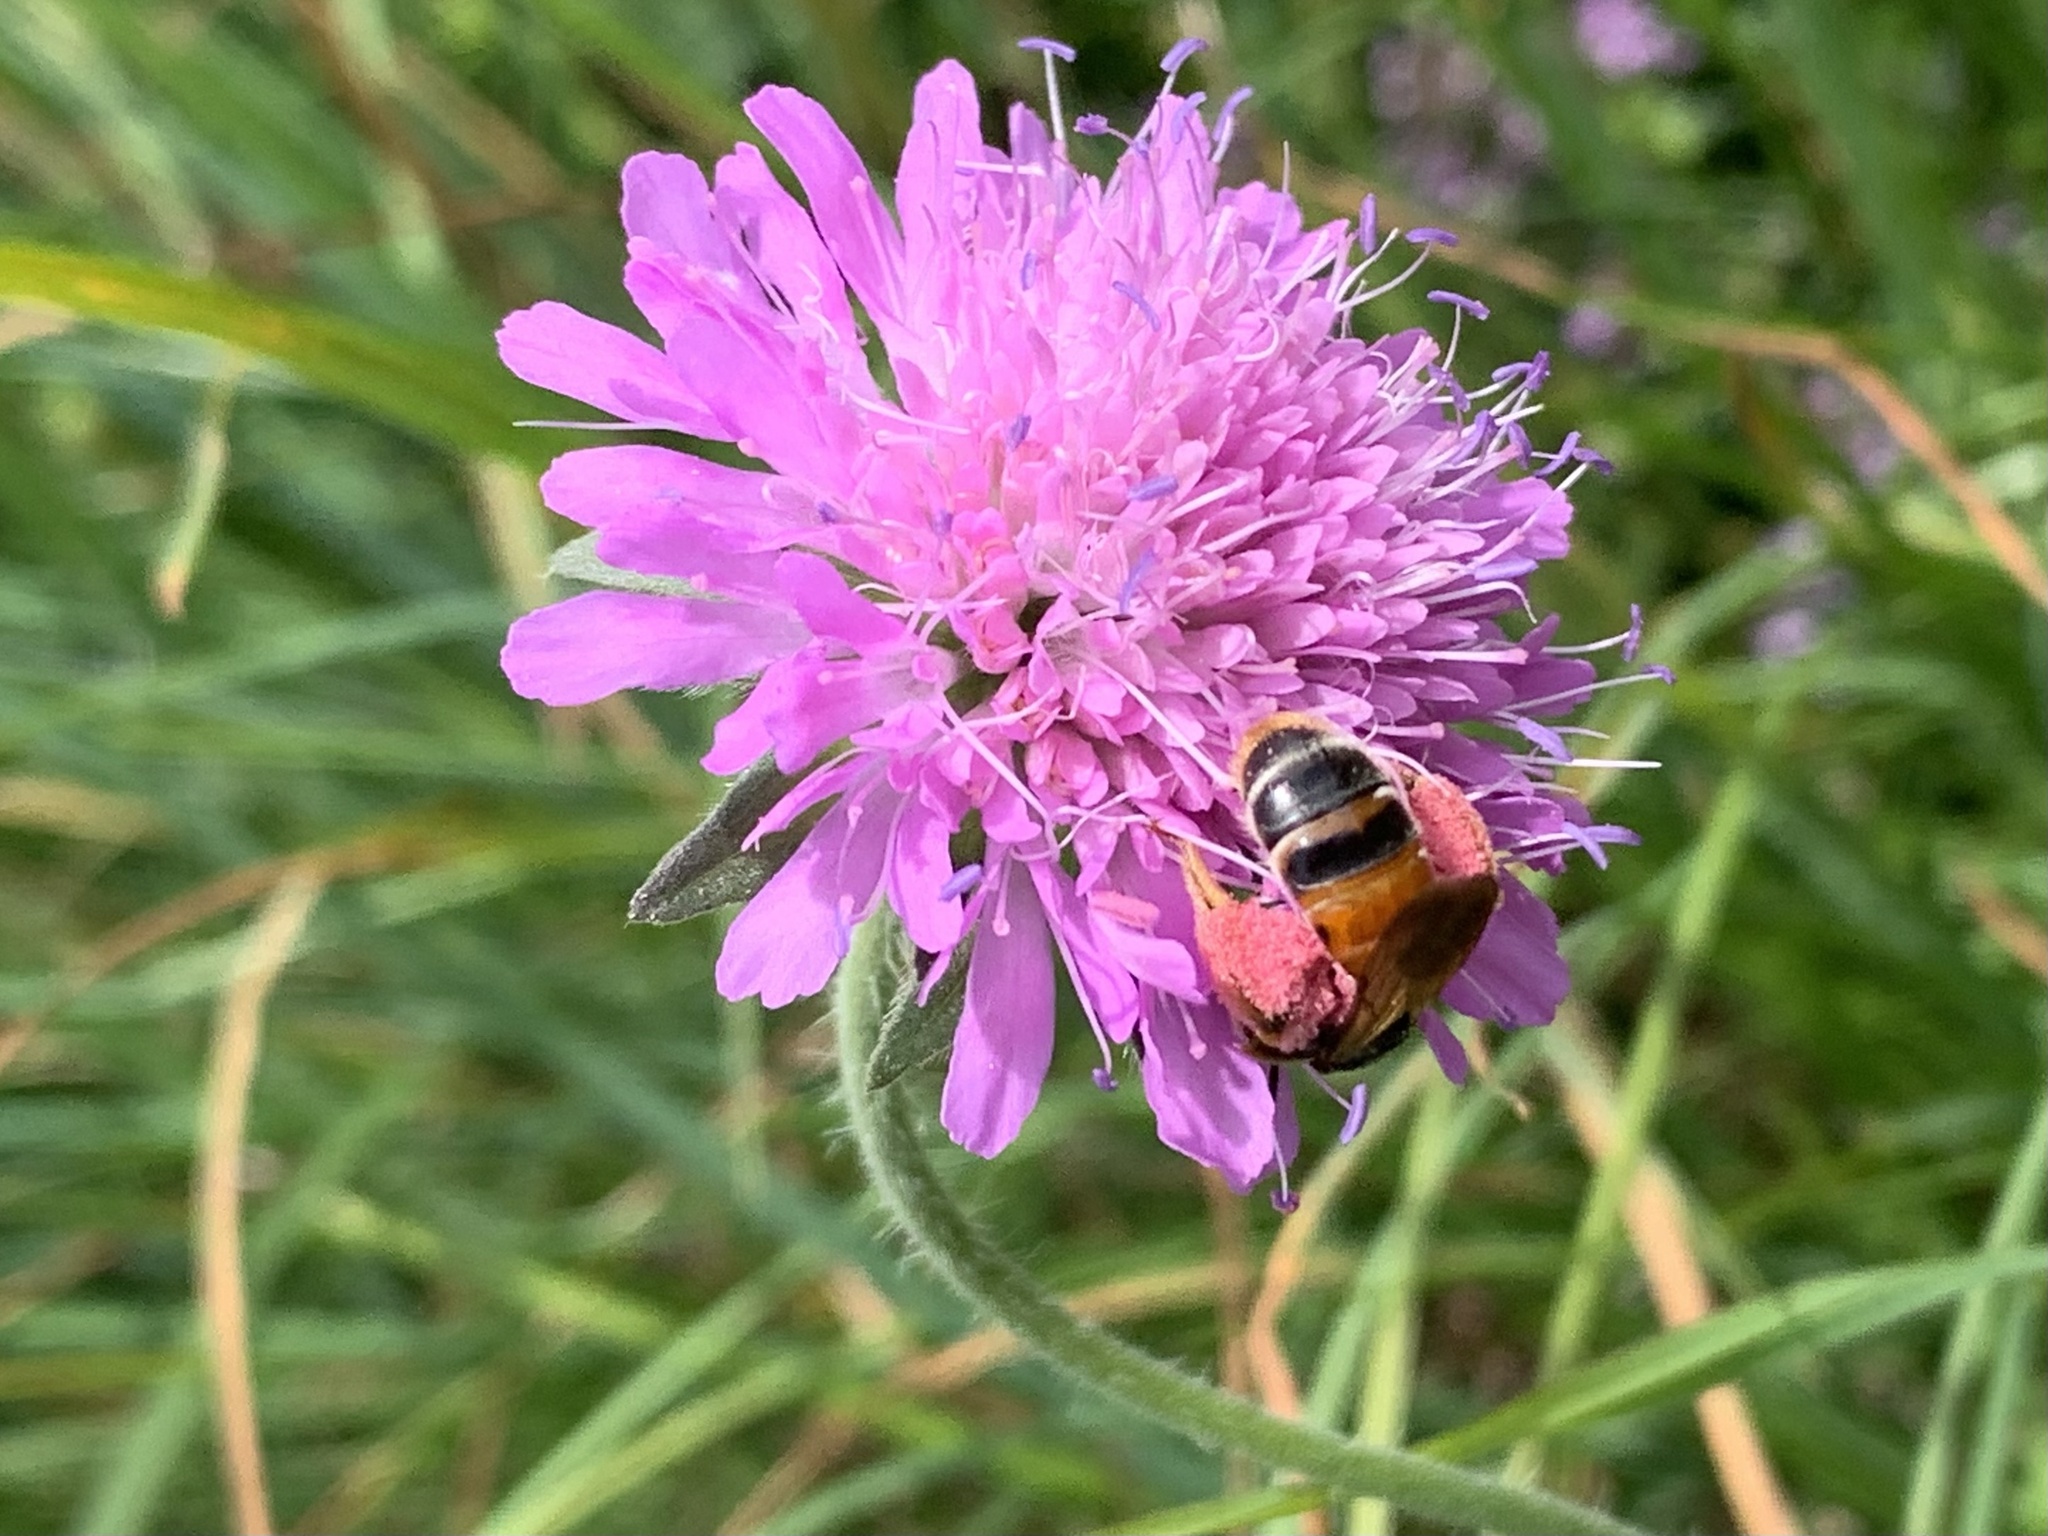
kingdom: Animalia
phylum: Arthropoda
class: Insecta
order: Hymenoptera
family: Andrenidae
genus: Andrena
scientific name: Andrena hattorfiana
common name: Large scabious mining bee
